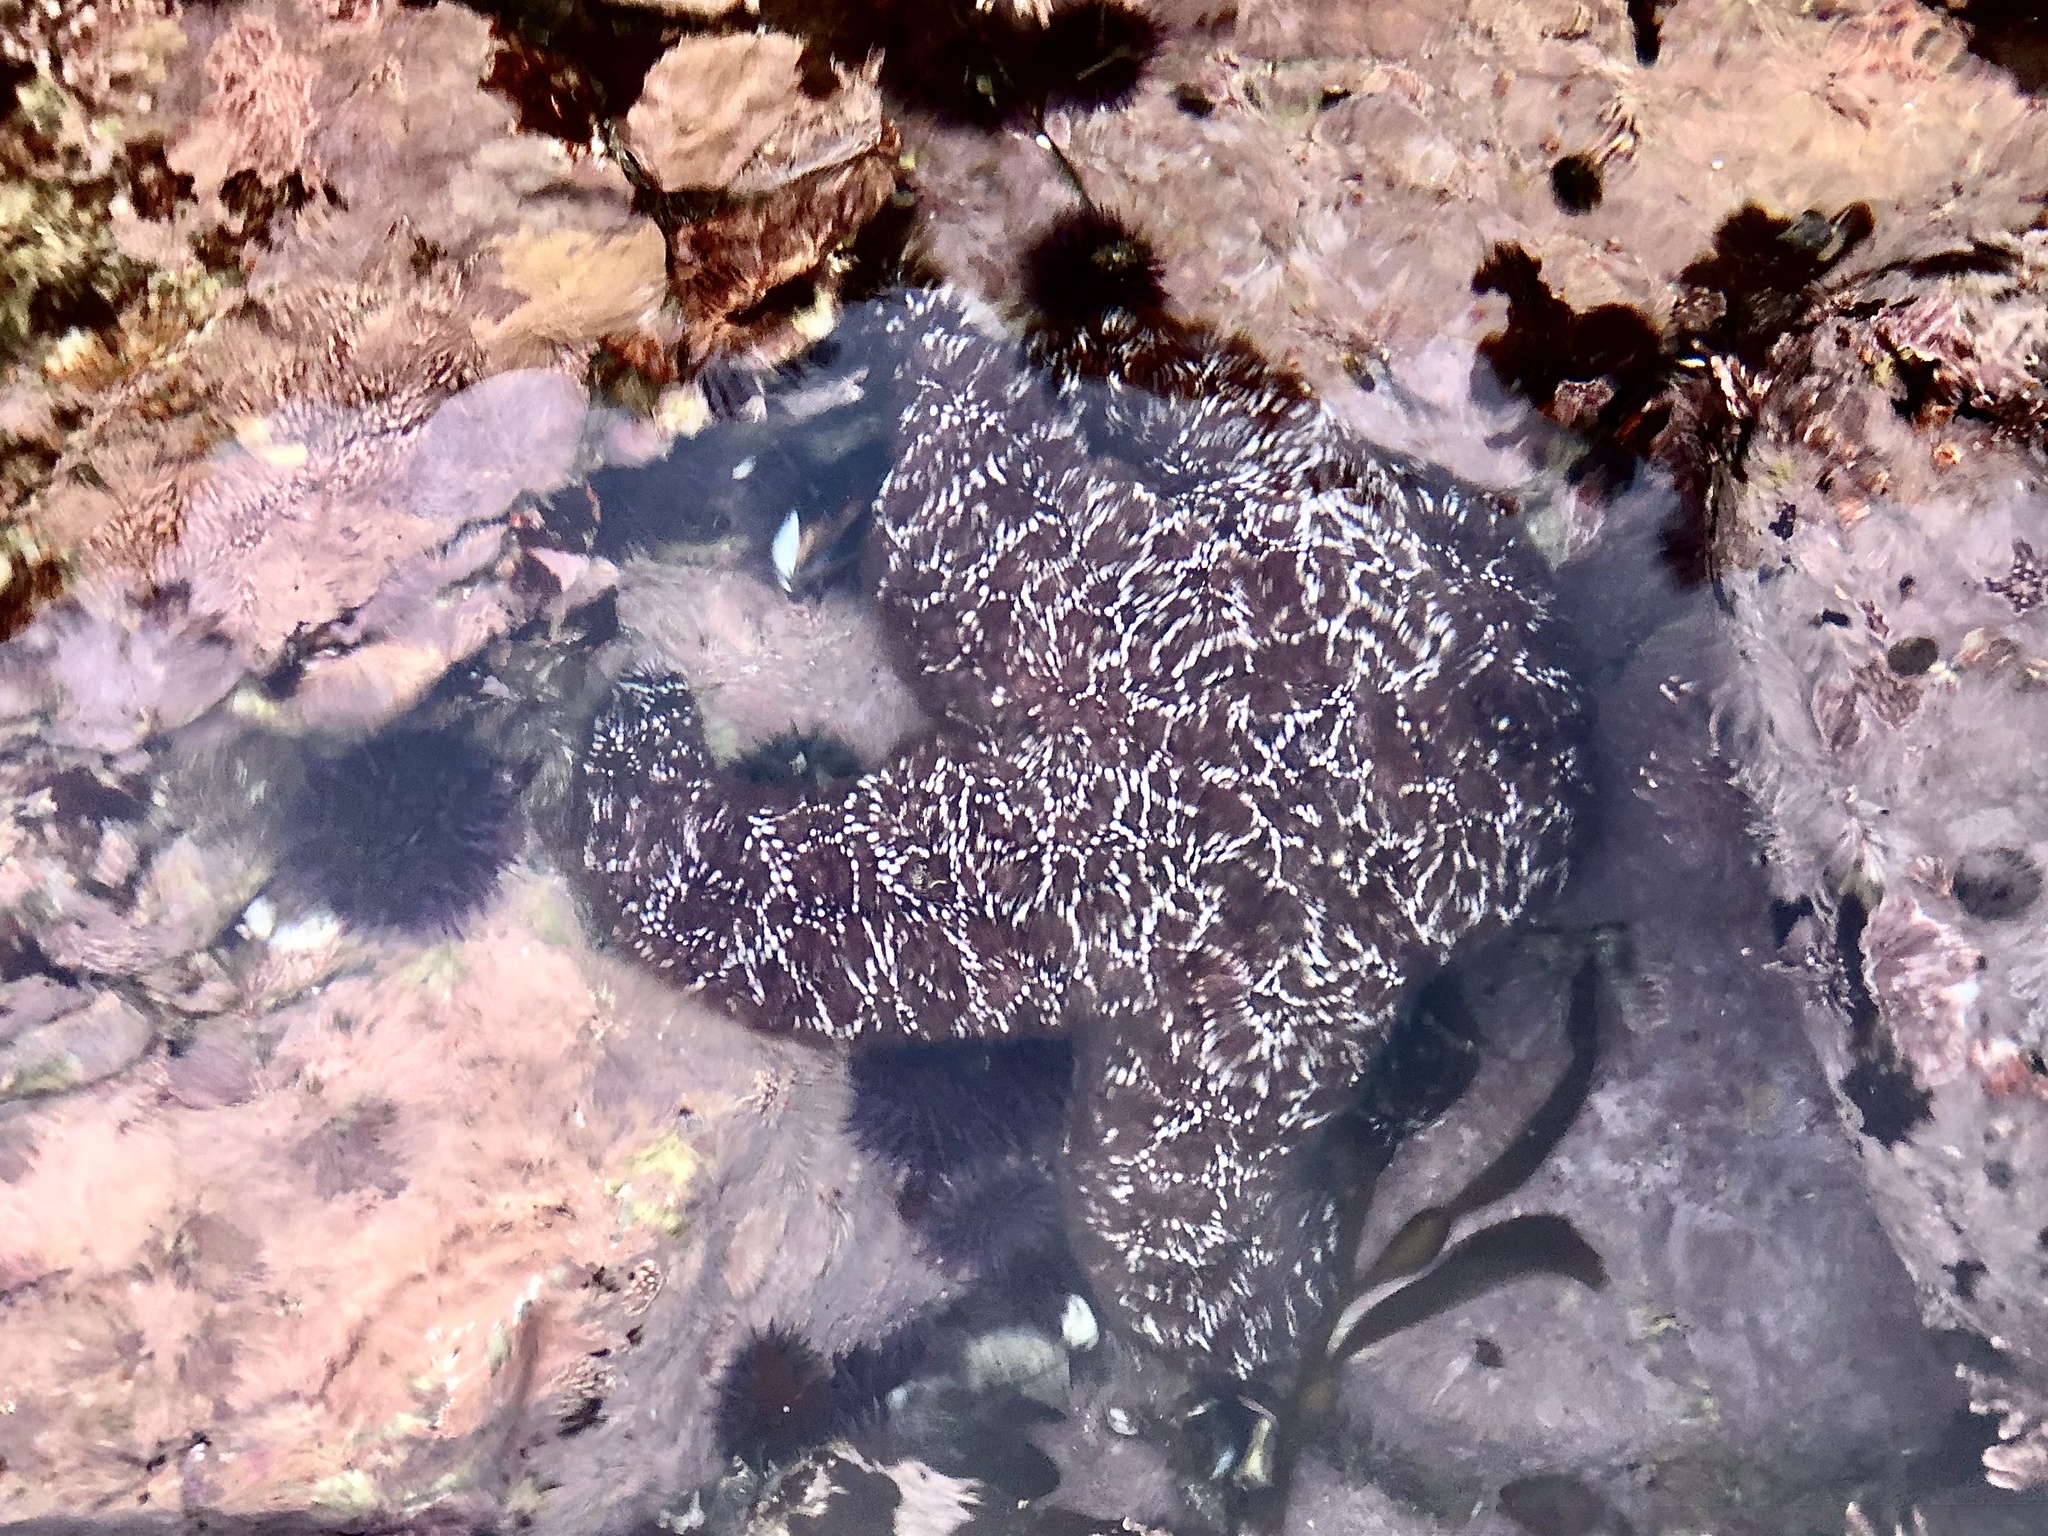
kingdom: Animalia
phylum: Echinodermata
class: Asteroidea
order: Forcipulatida
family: Asteriidae
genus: Pisaster
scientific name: Pisaster ochraceus
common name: Ochre stars
